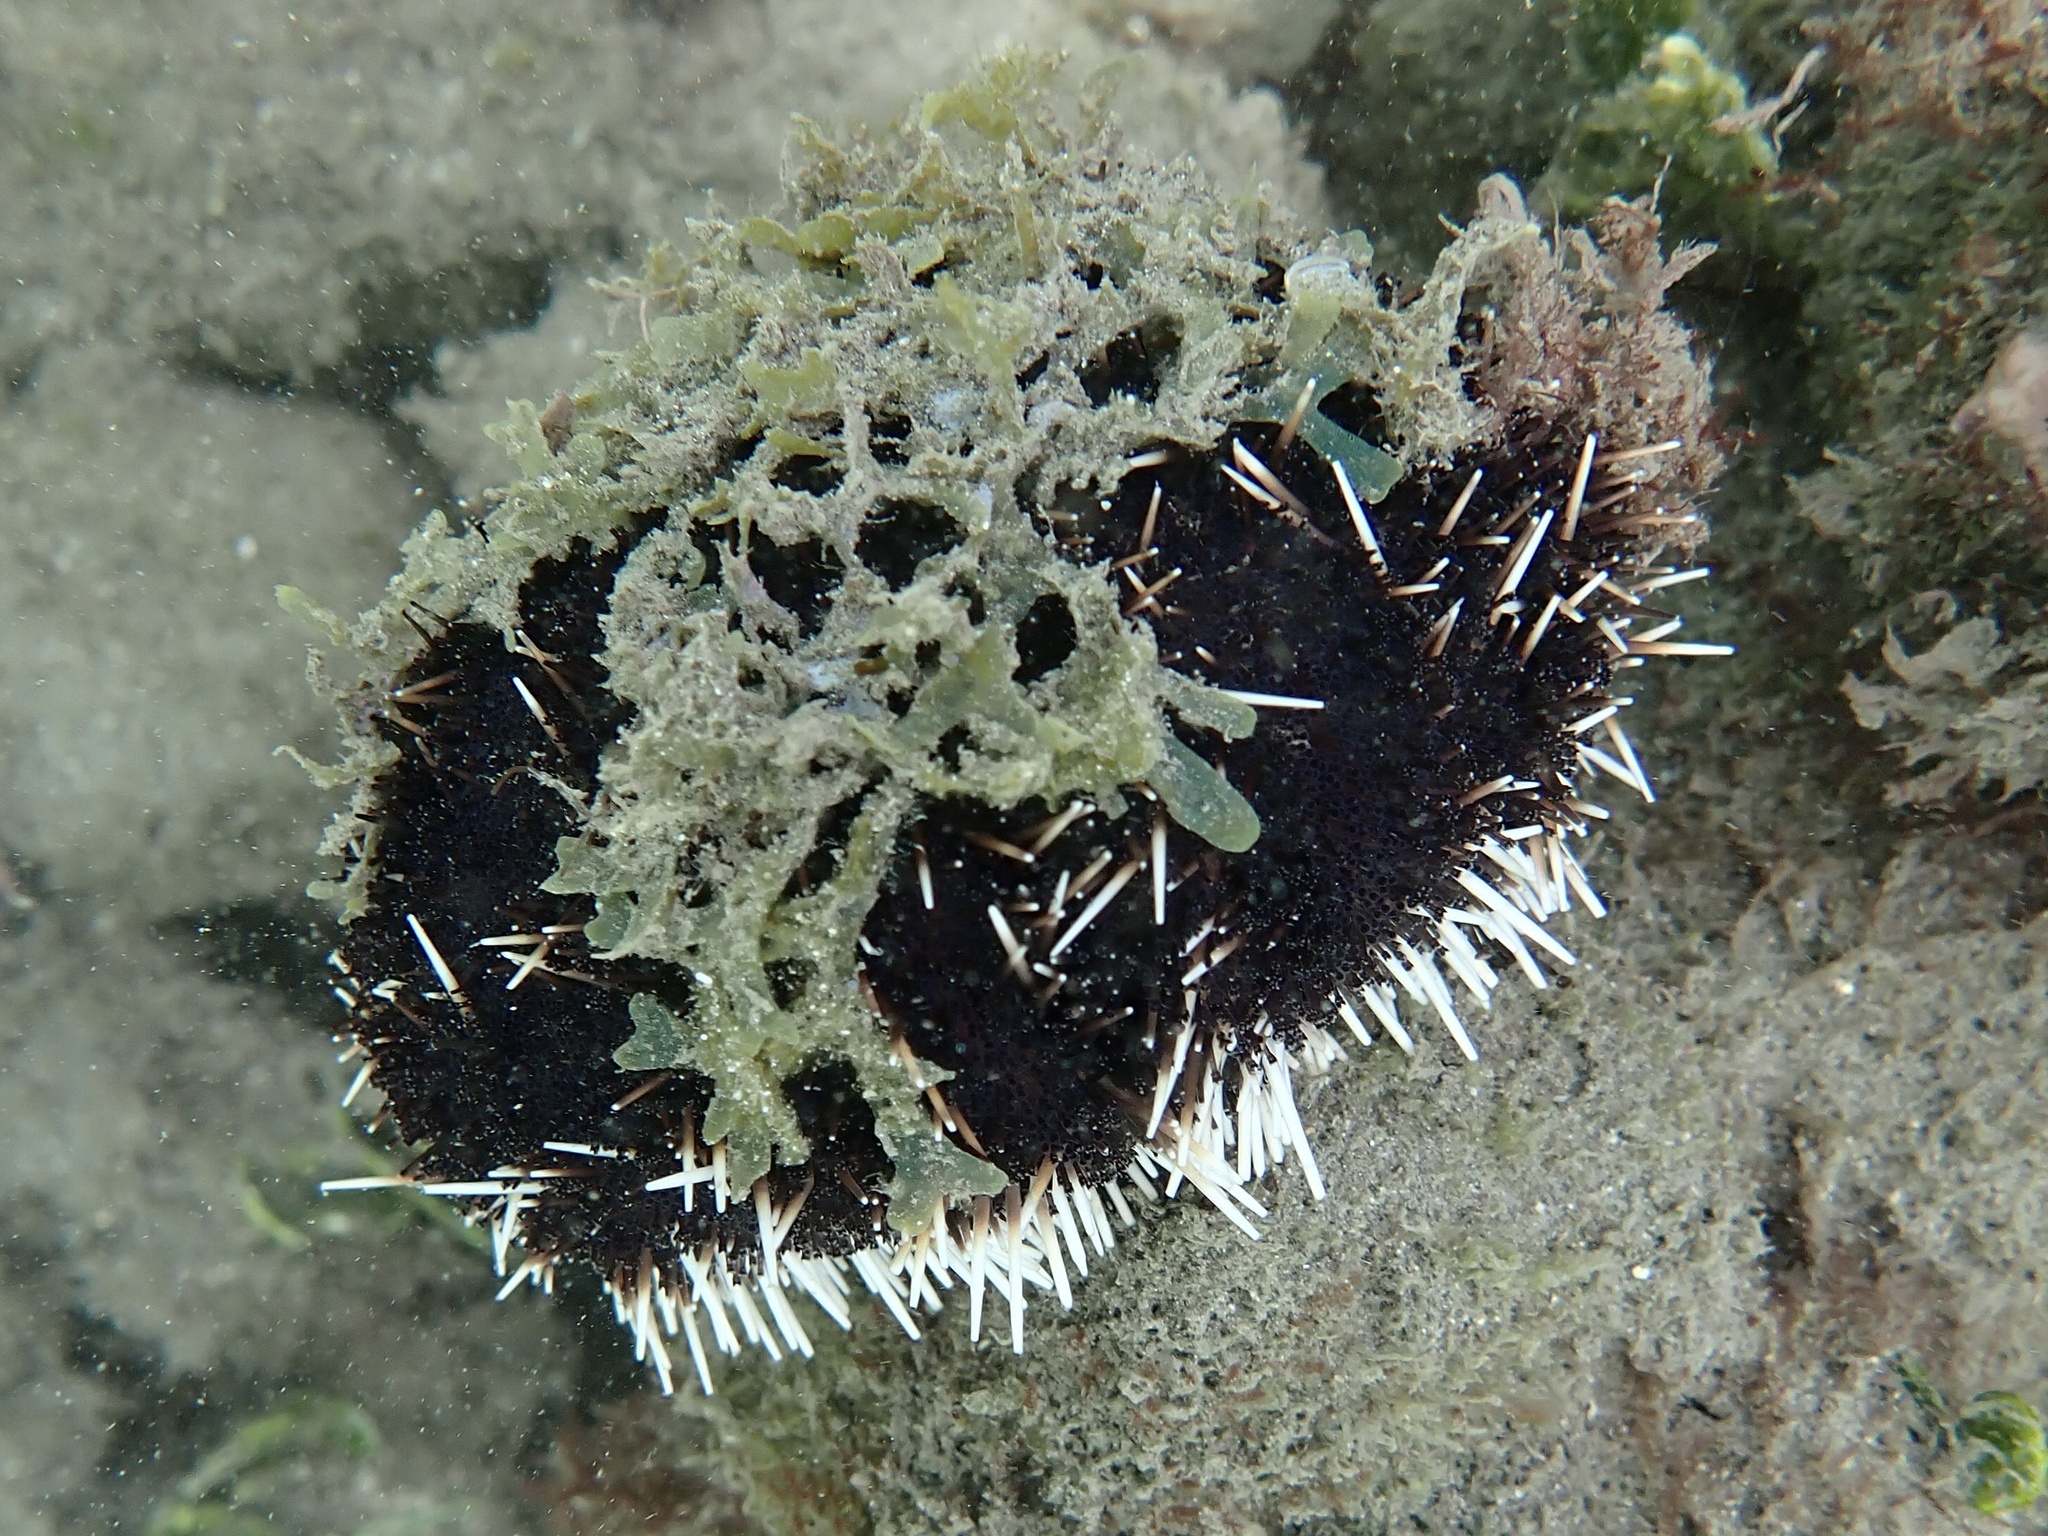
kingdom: Animalia
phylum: Echinodermata
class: Echinoidea
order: Camarodonta
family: Toxopneustidae
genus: Tripneustes
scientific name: Tripneustes gratilla
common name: Bischofsmützenseeigel
